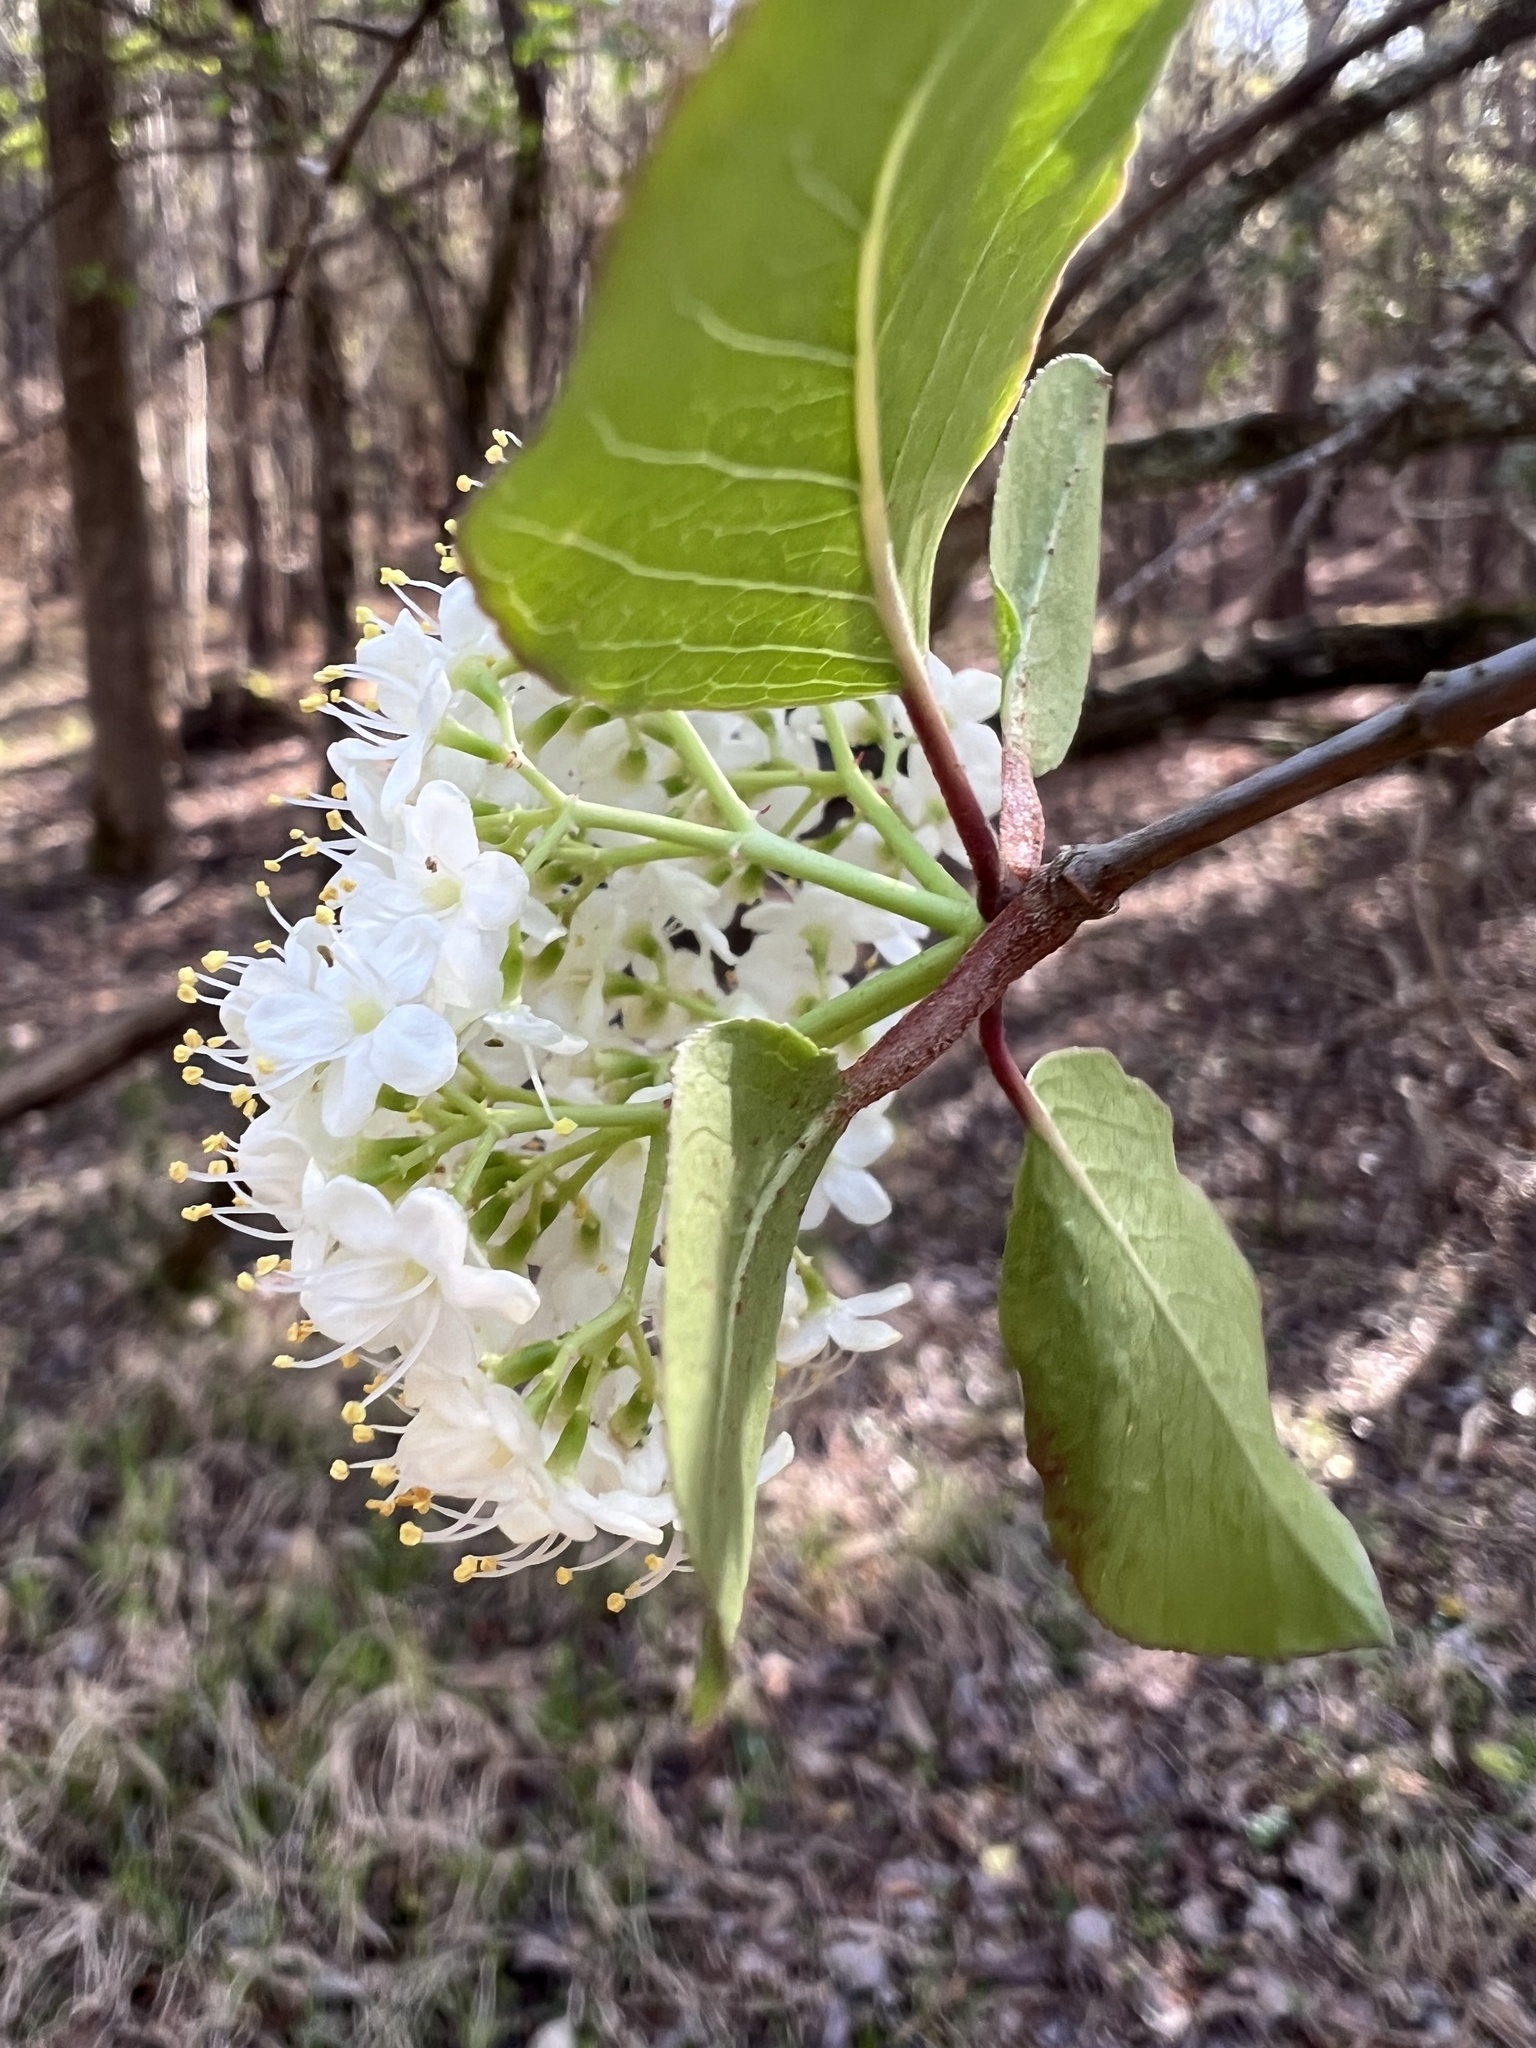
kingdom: Plantae
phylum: Tracheophyta
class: Magnoliopsida
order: Dipsacales
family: Viburnaceae
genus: Viburnum
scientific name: Viburnum prunifolium
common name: Black haw
